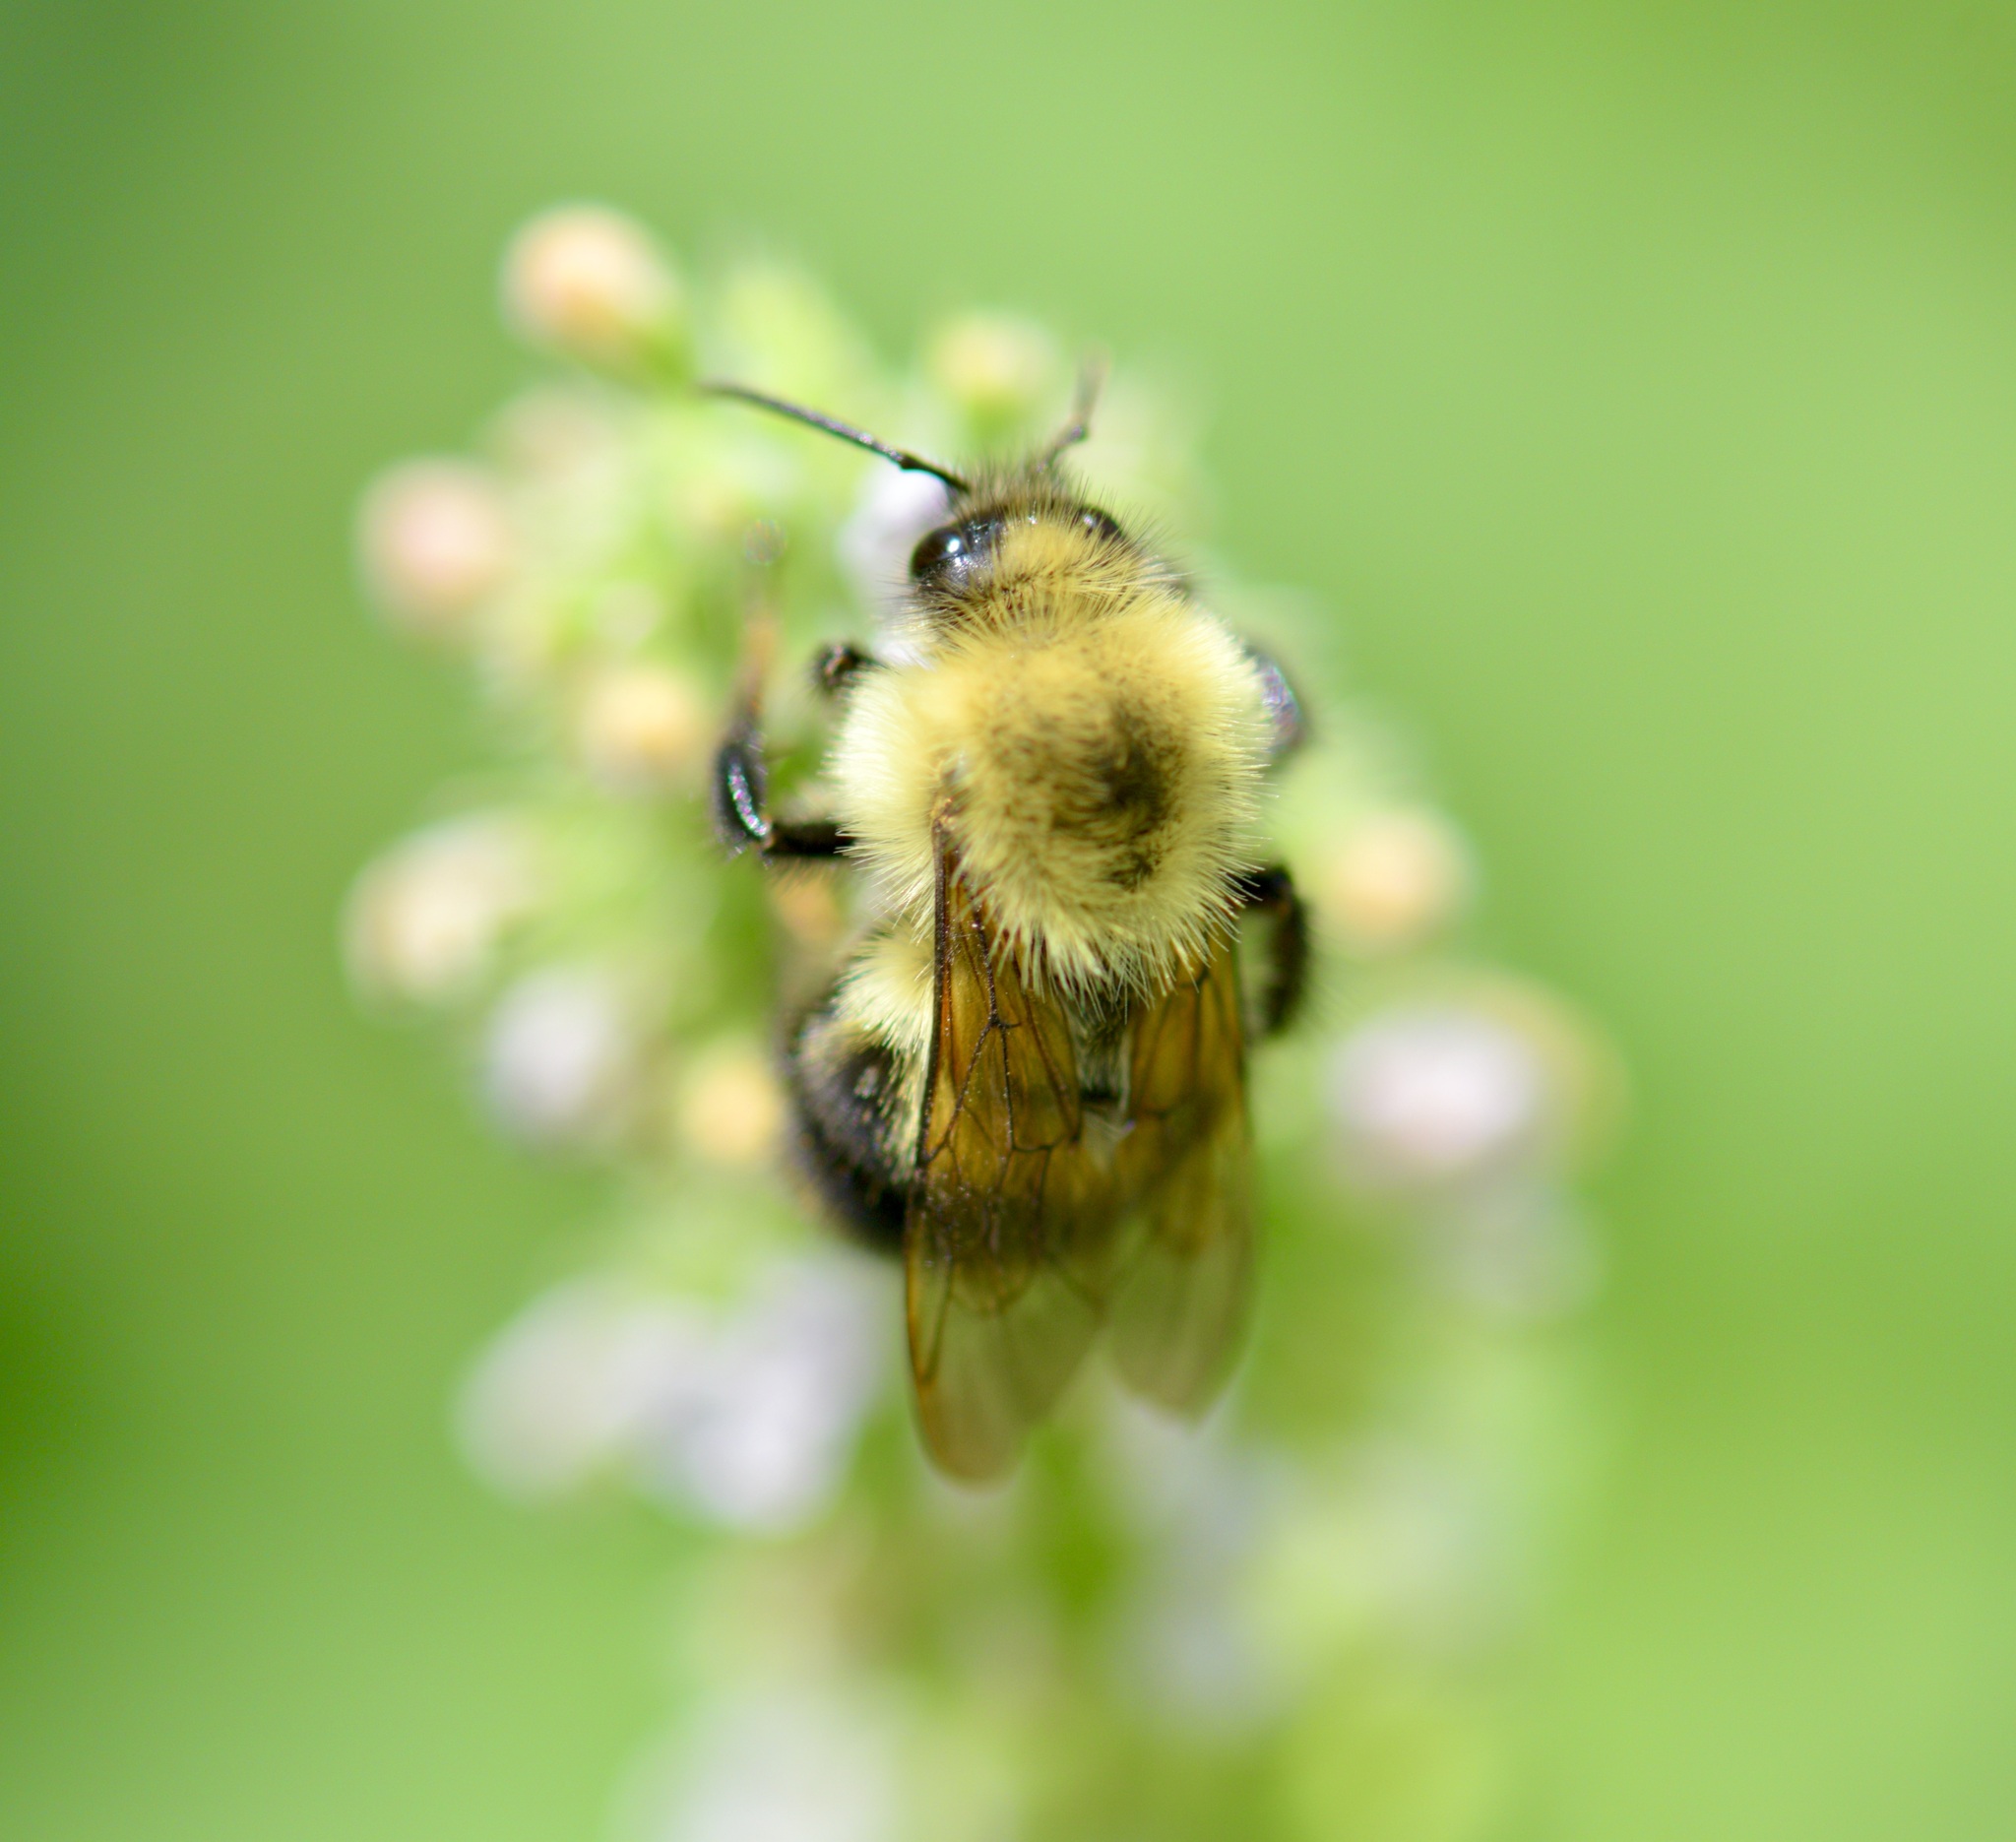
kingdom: Animalia
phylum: Arthropoda
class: Insecta
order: Hymenoptera
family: Apidae
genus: Bombus
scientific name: Bombus bimaculatus
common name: Two-spotted bumble bee
